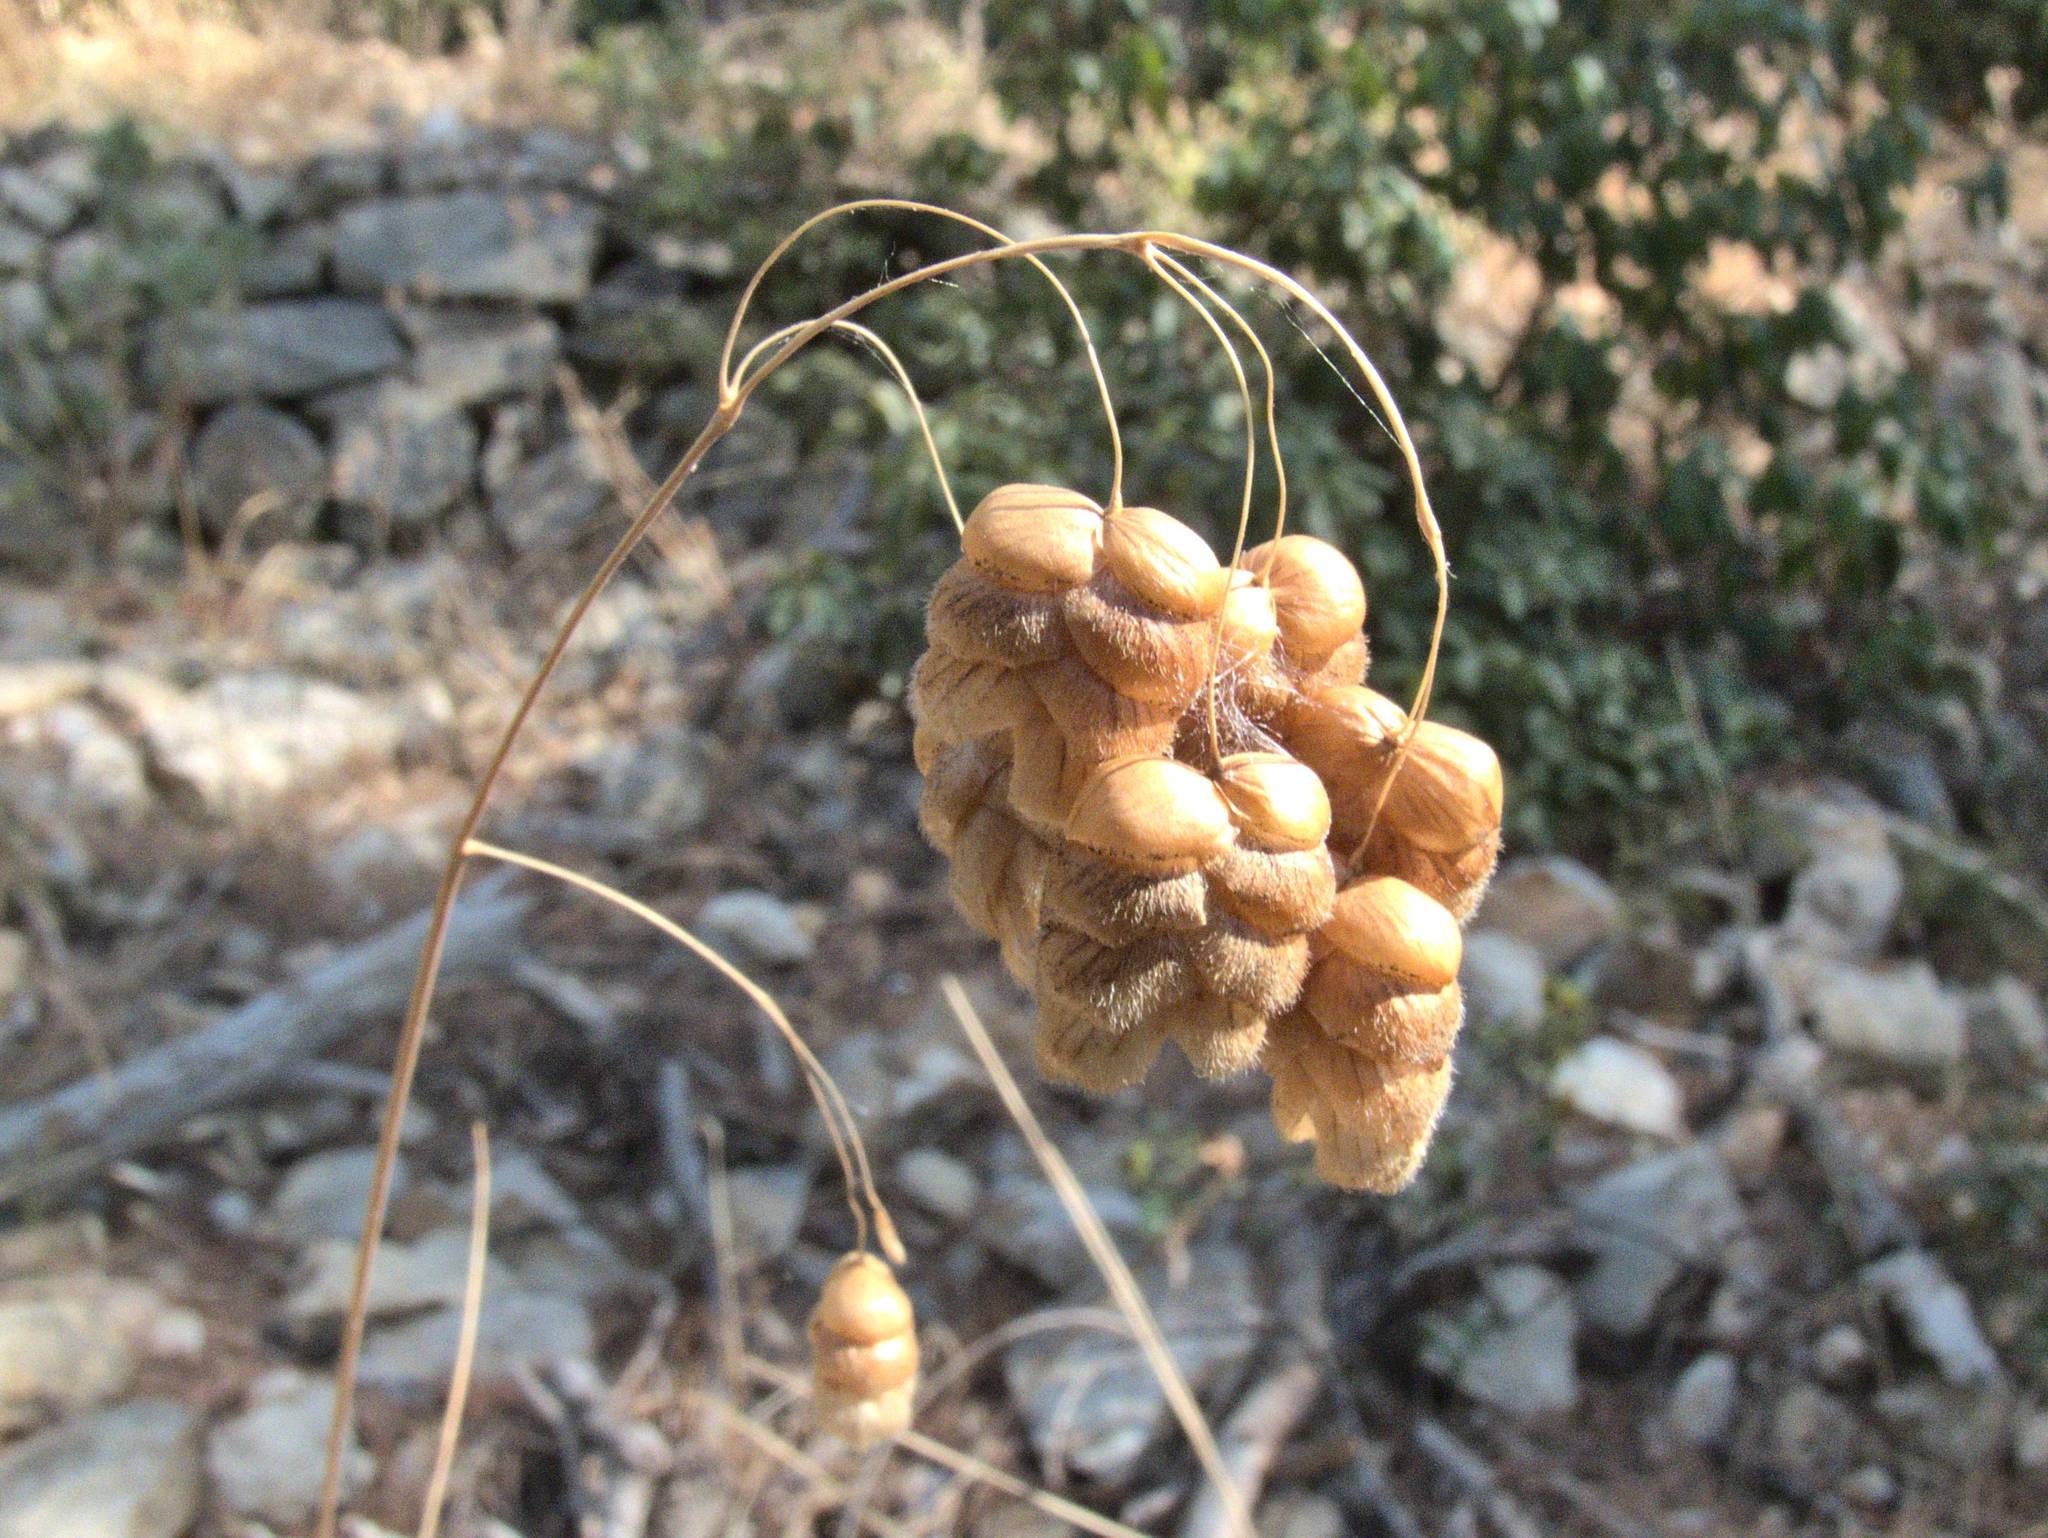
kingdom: Plantae
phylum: Tracheophyta
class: Liliopsida
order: Poales
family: Poaceae
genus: Briza
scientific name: Briza maxima
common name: Big quakinggrass
